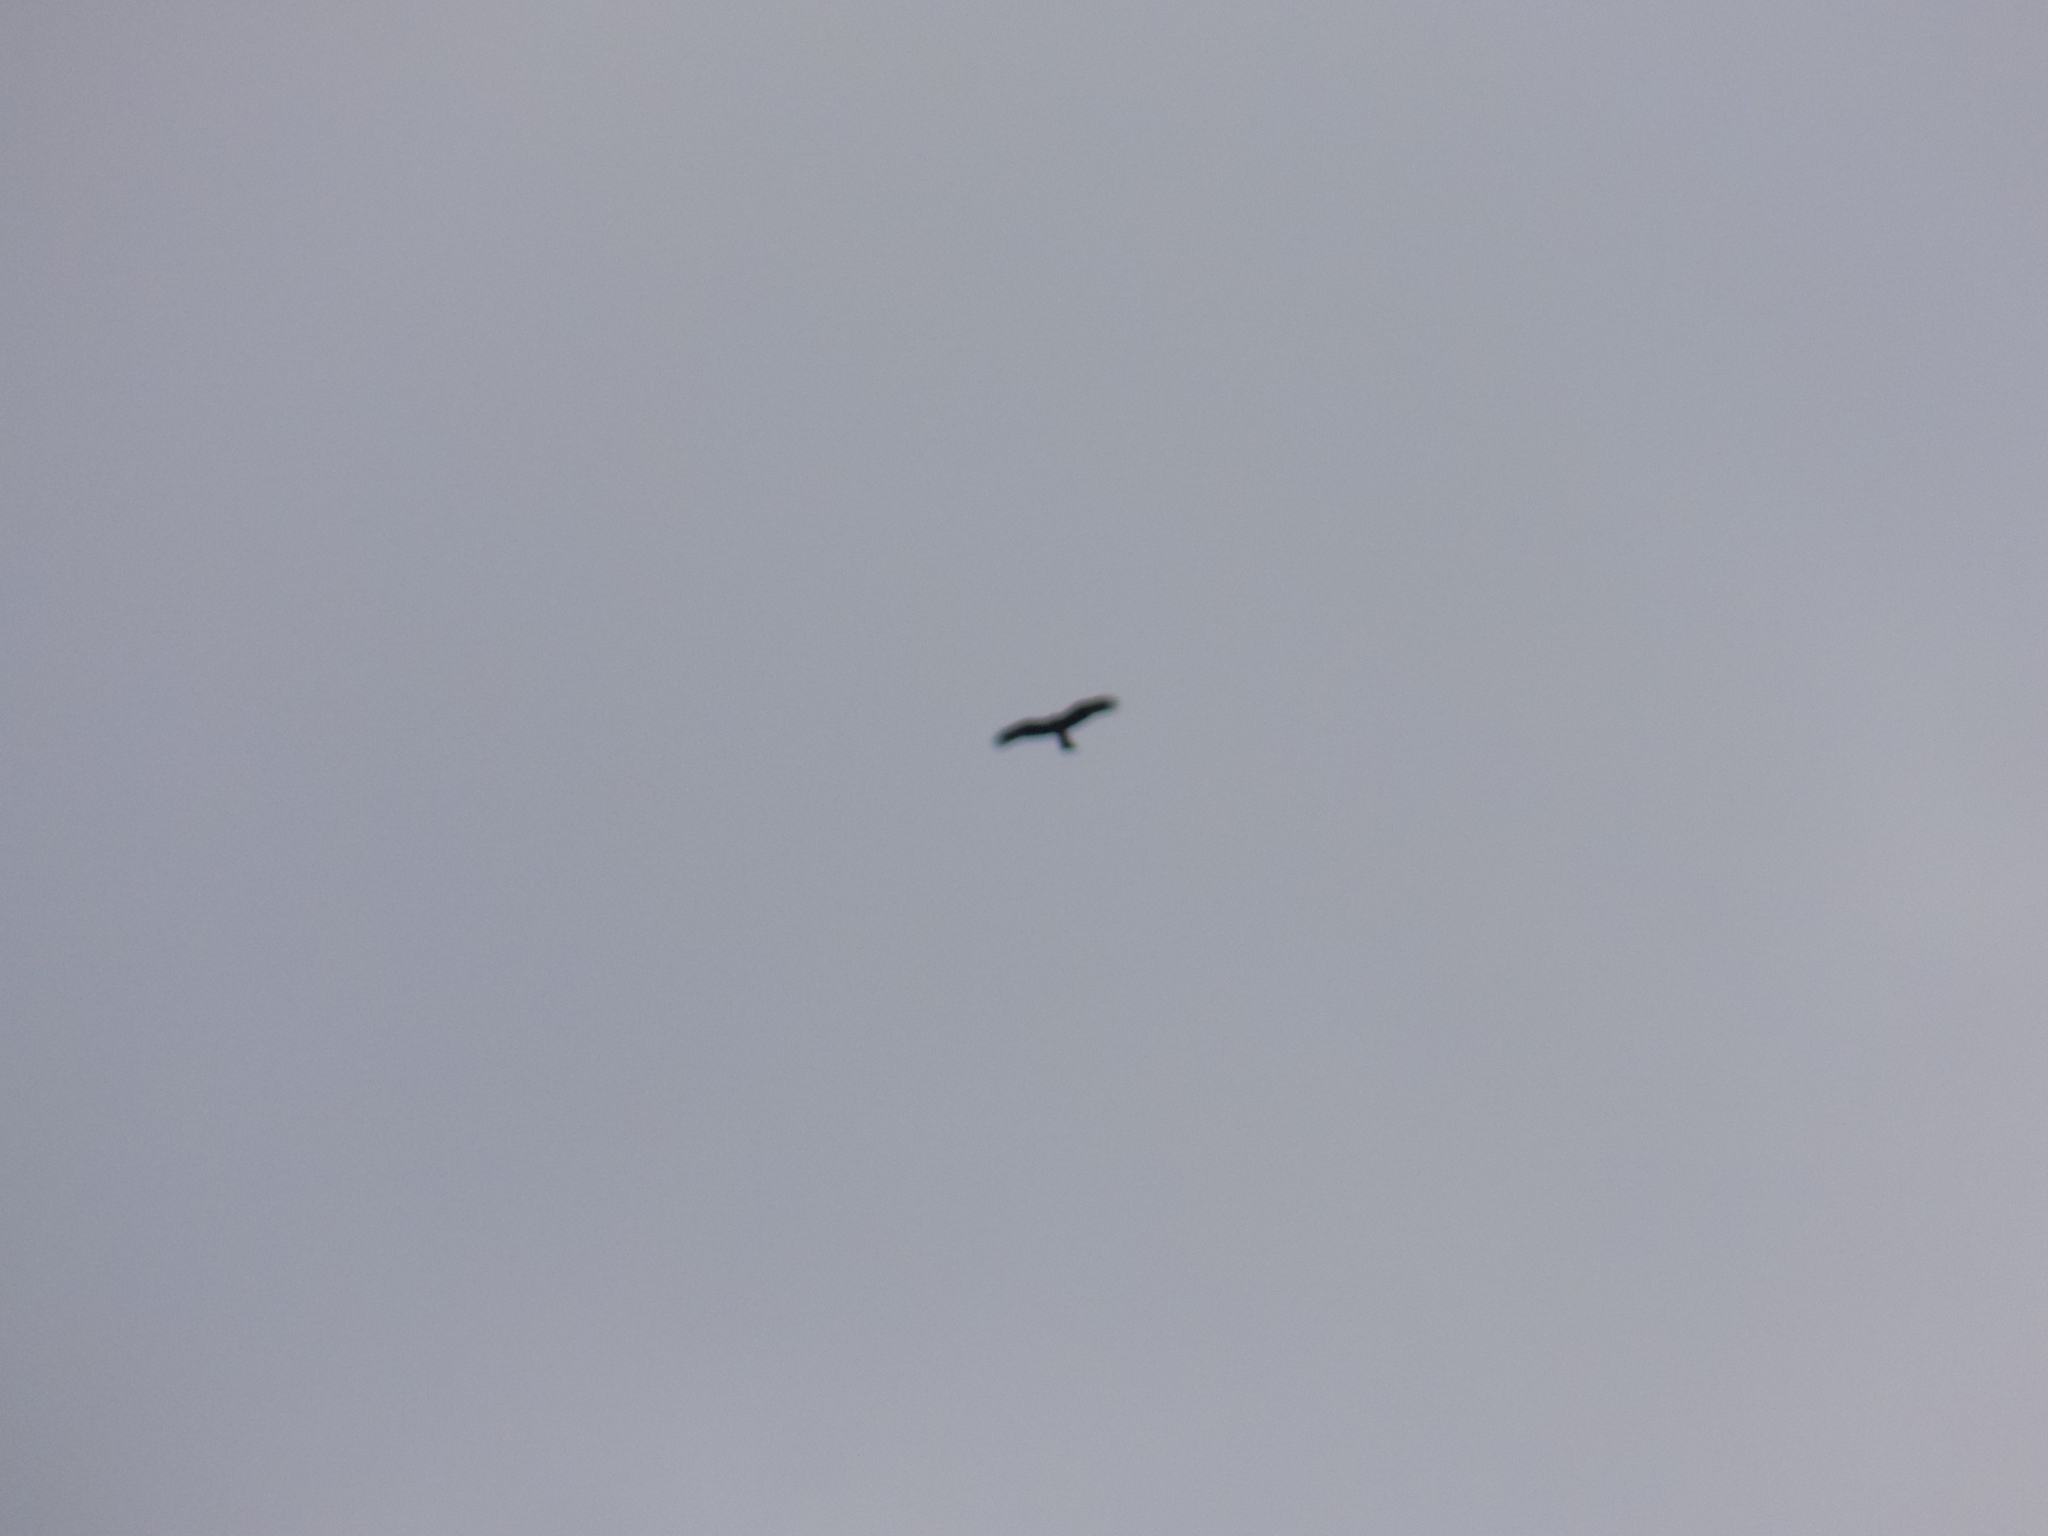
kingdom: Animalia
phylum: Chordata
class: Aves
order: Accipitriformes
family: Accipitridae
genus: Milvus
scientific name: Milvus migrans
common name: Black kite
